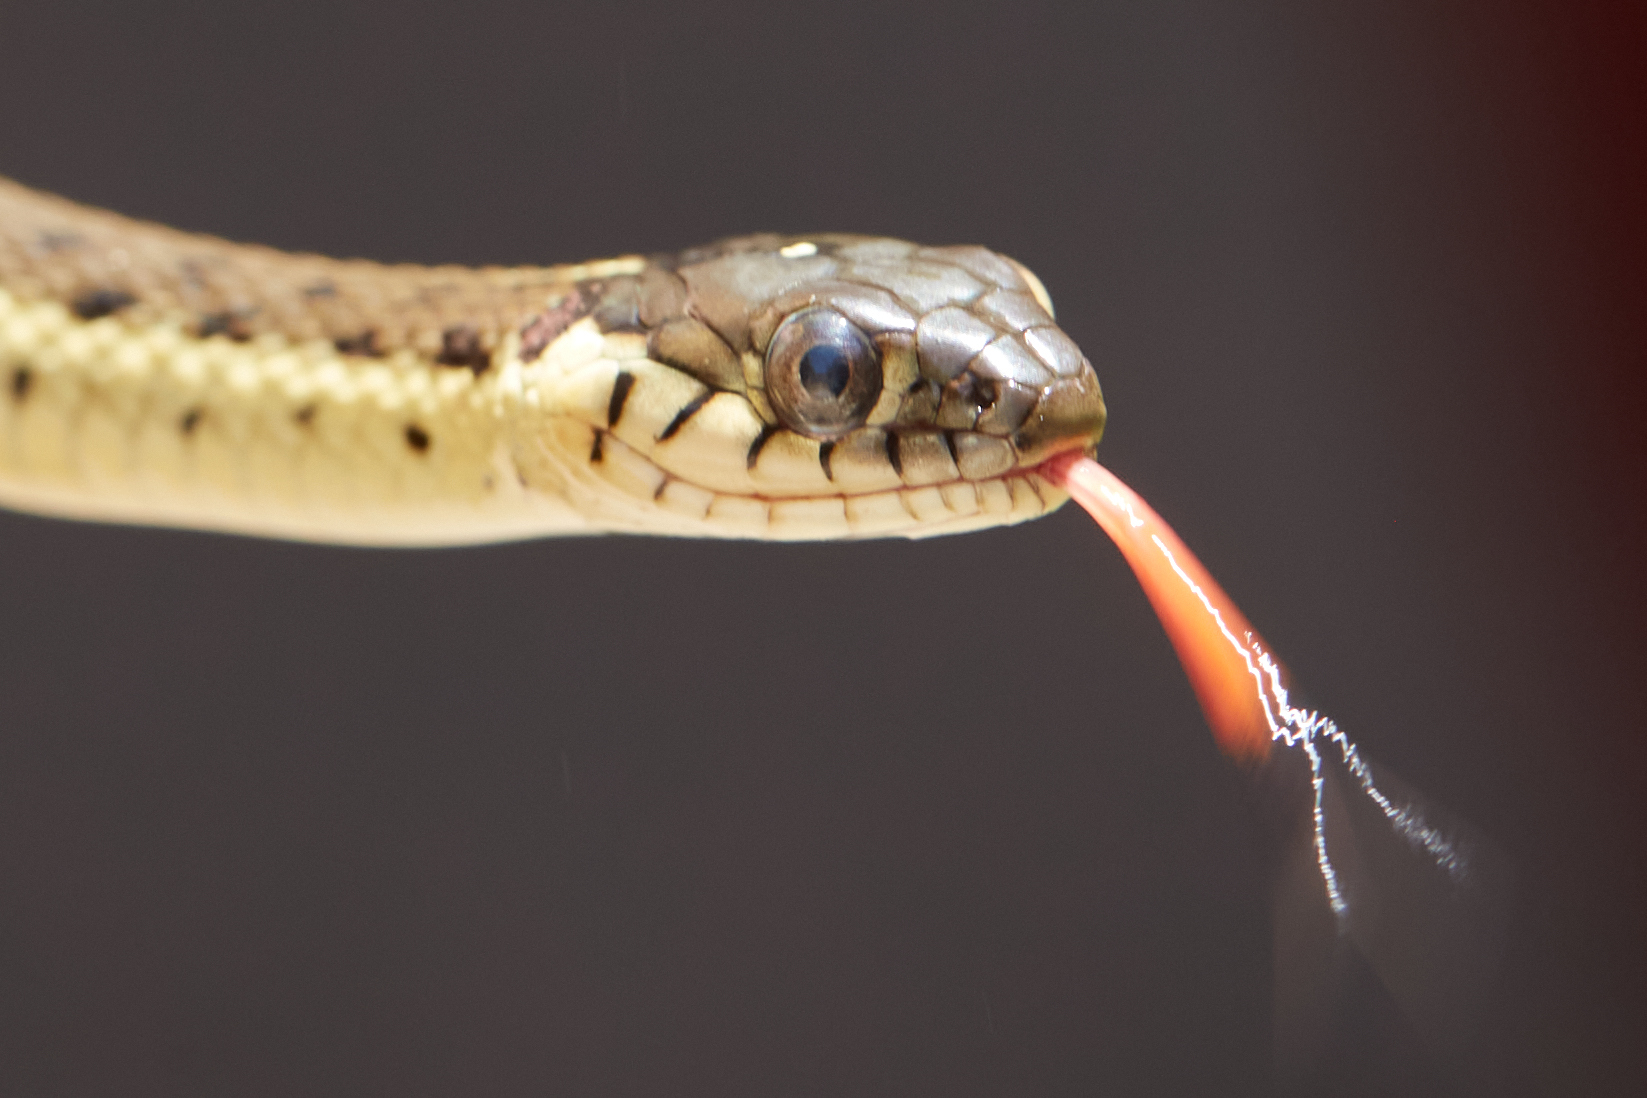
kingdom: Animalia
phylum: Chordata
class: Squamata
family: Colubridae
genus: Thamnophis
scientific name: Thamnophis hammondii
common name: Two-striped garter snake
